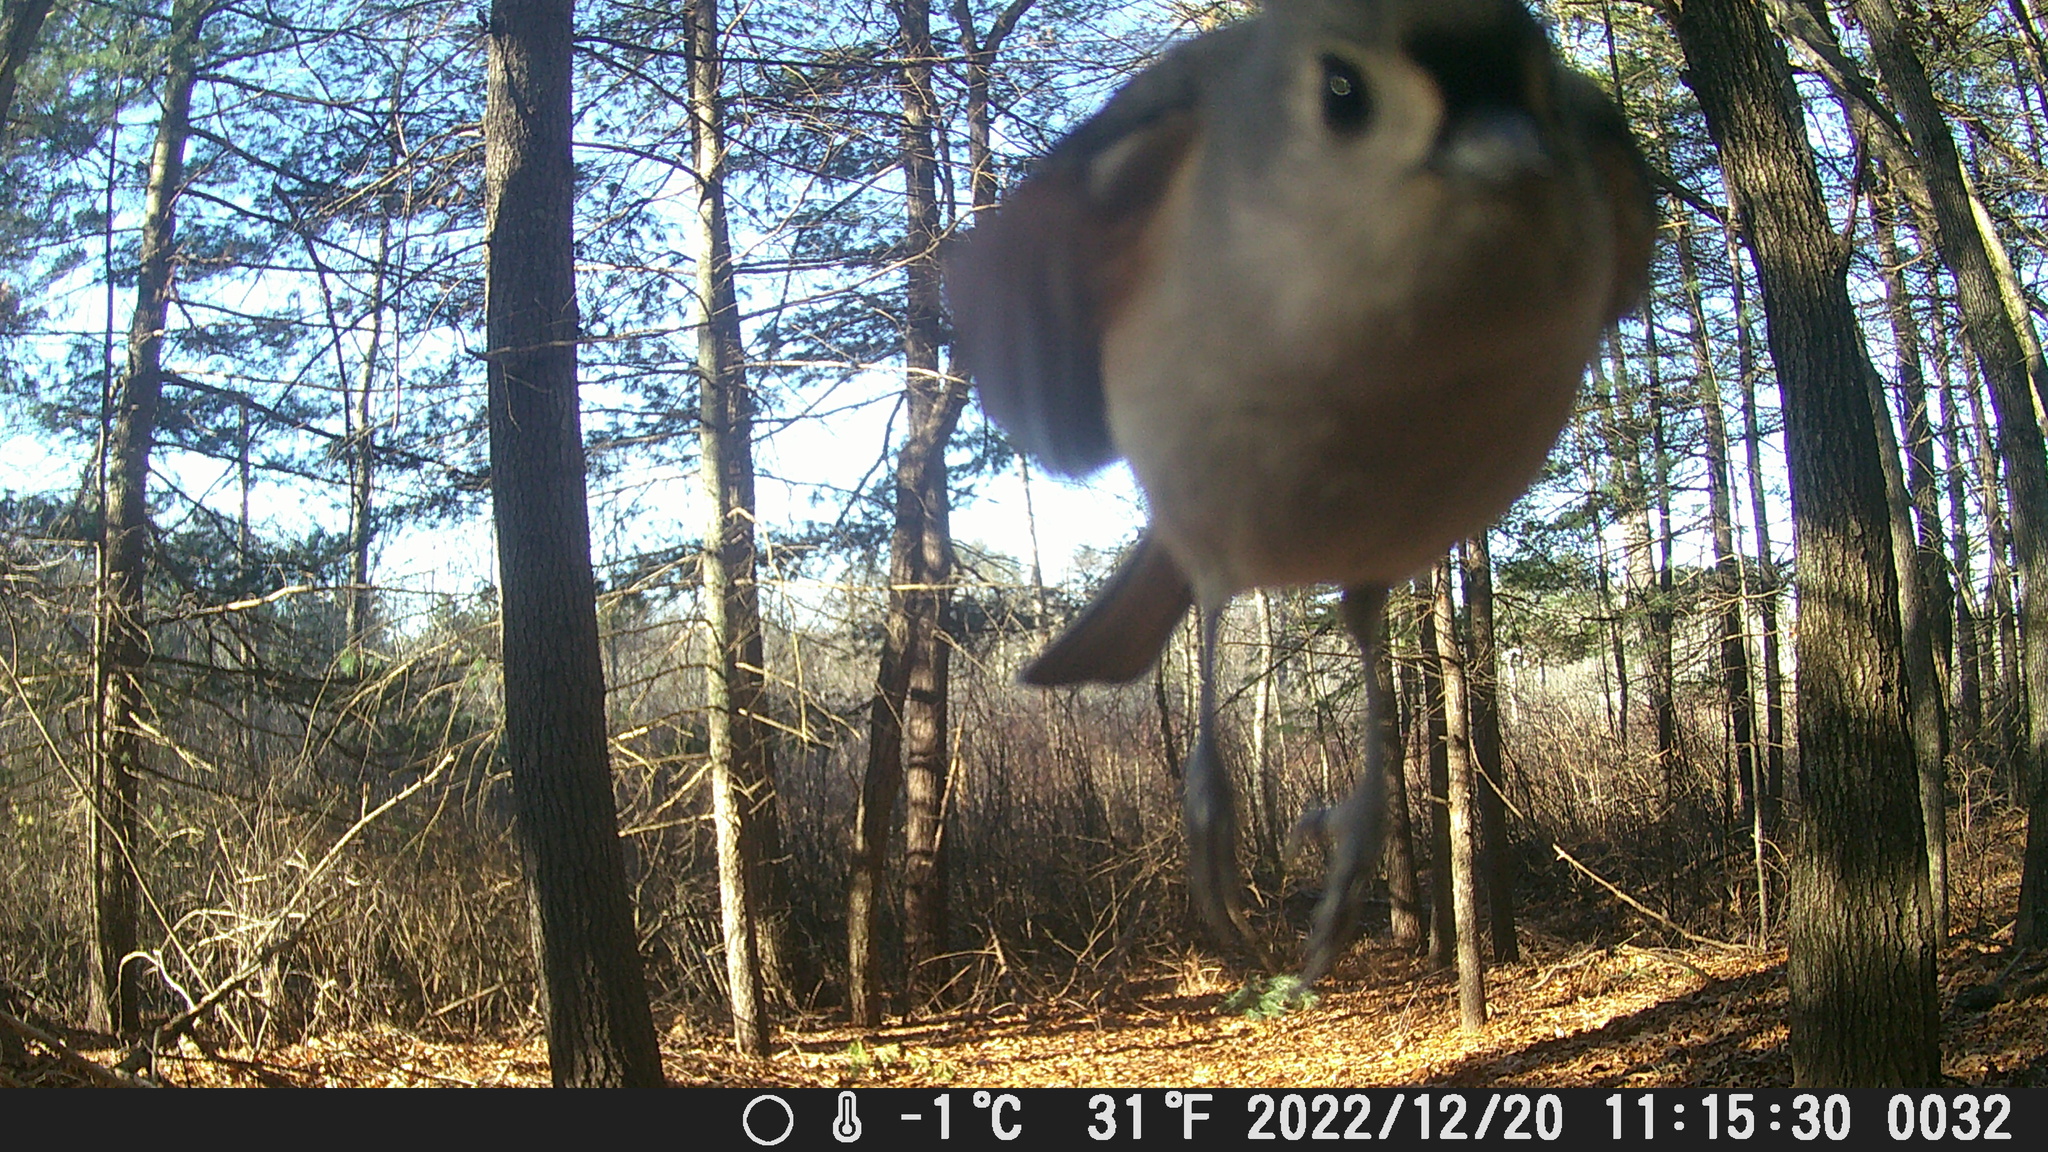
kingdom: Animalia
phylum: Chordata
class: Aves
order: Passeriformes
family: Paridae
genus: Baeolophus
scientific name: Baeolophus bicolor
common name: Tufted titmouse
